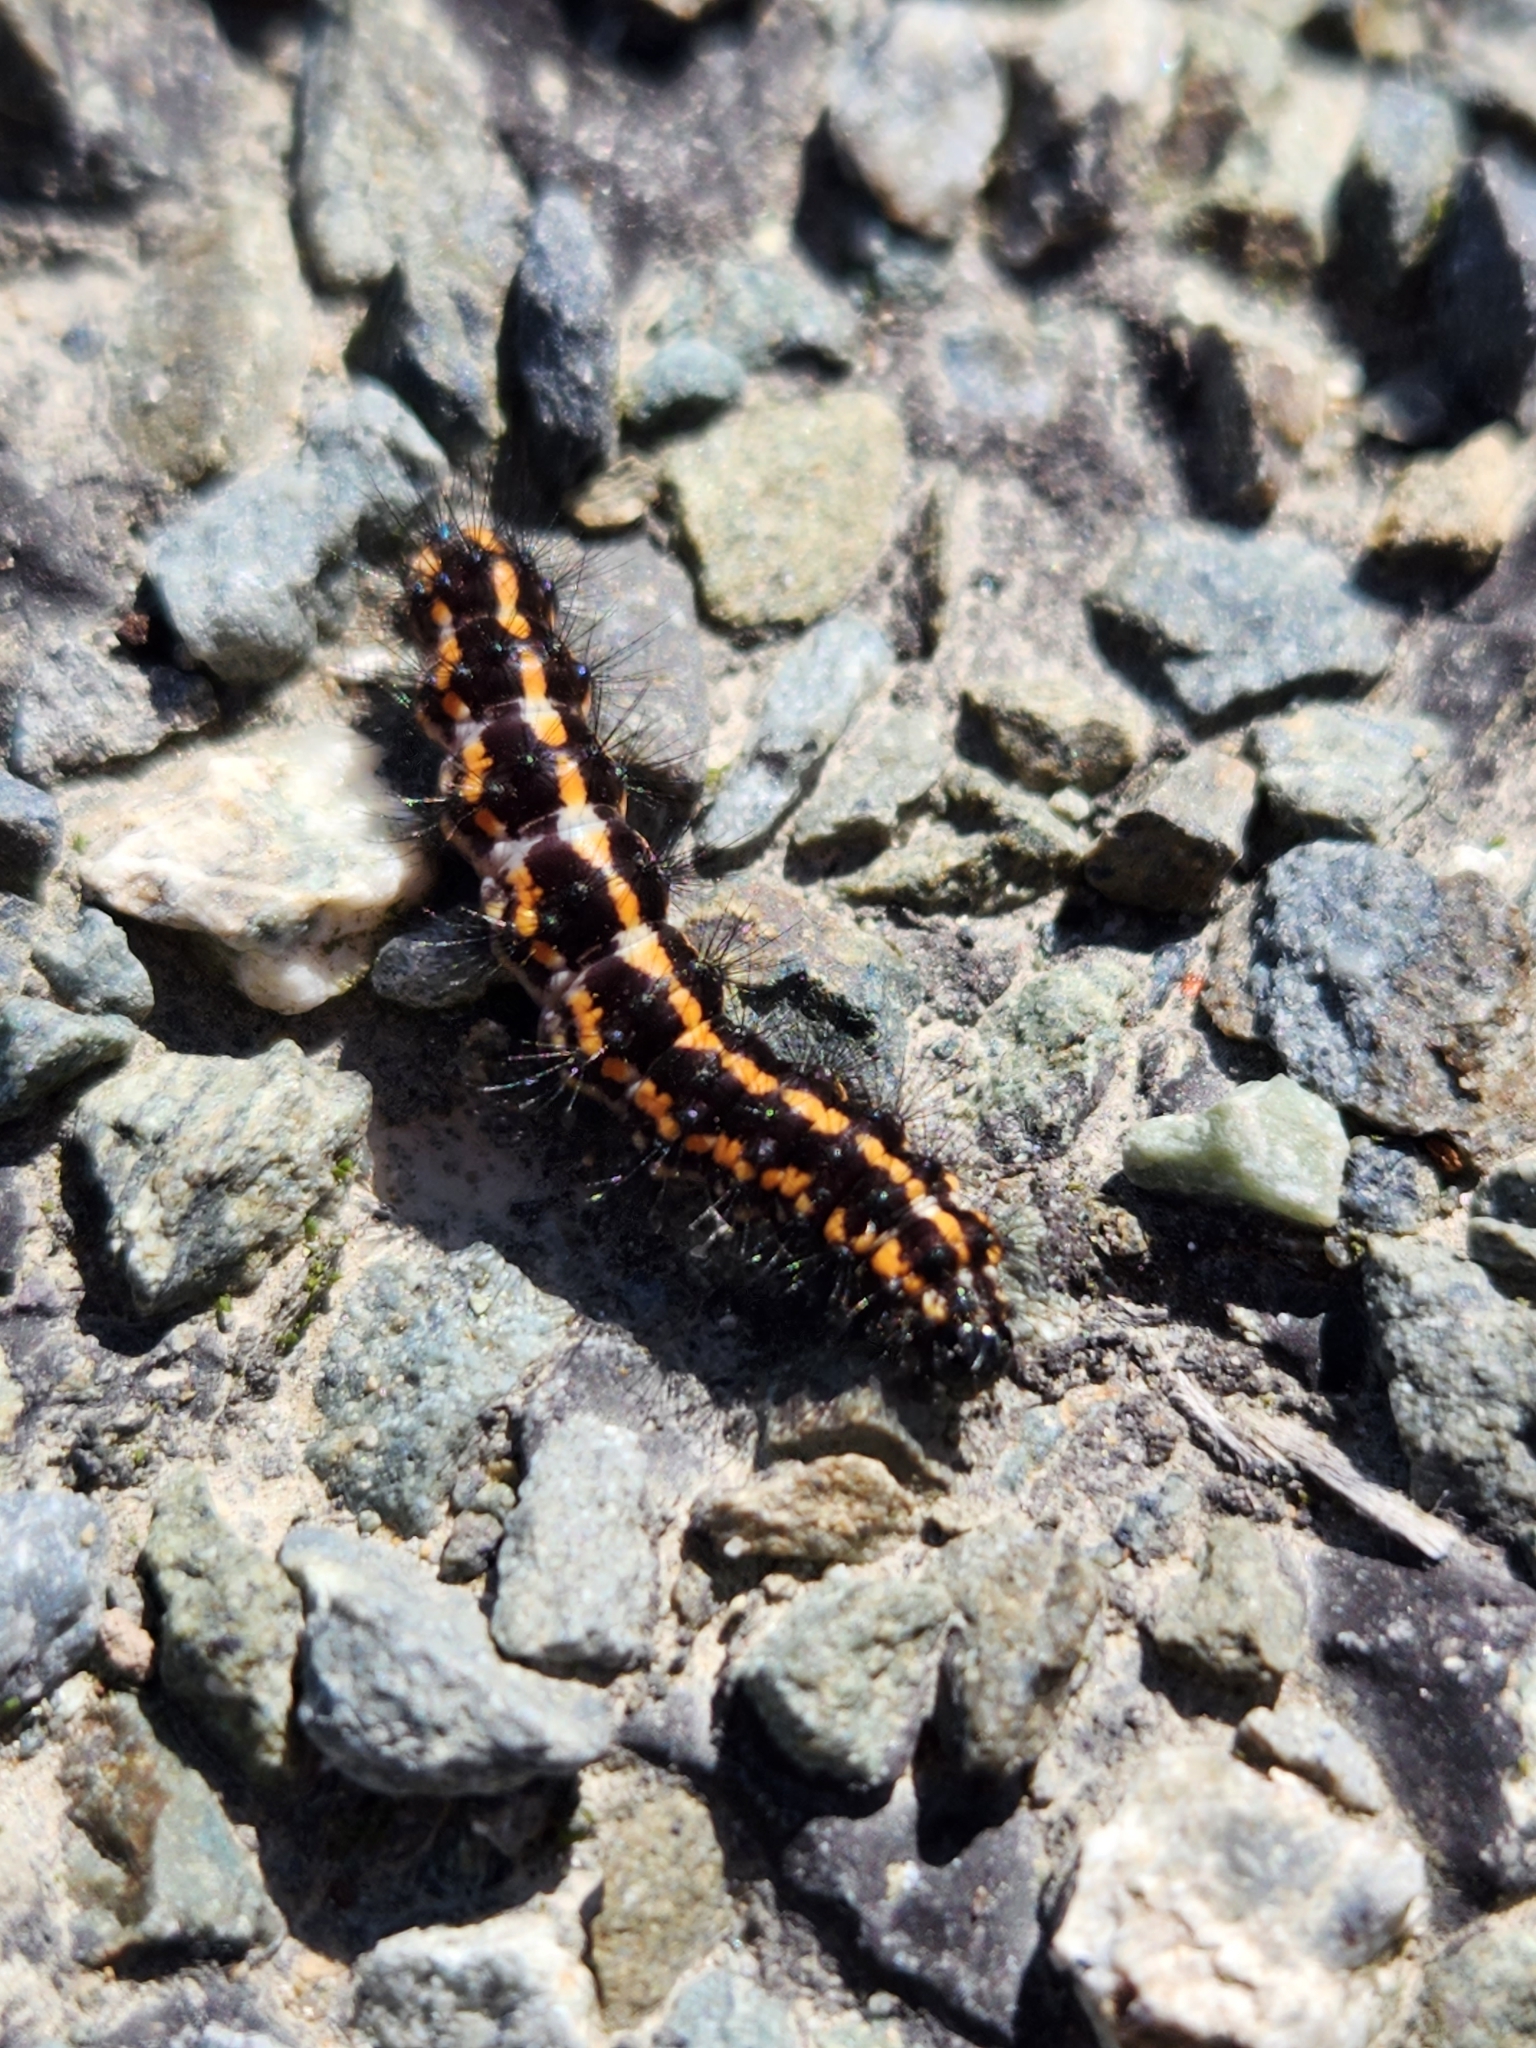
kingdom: Animalia
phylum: Arthropoda
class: Insecta
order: Lepidoptera
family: Erebidae
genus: Nyctemera
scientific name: Nyctemera annulatum
